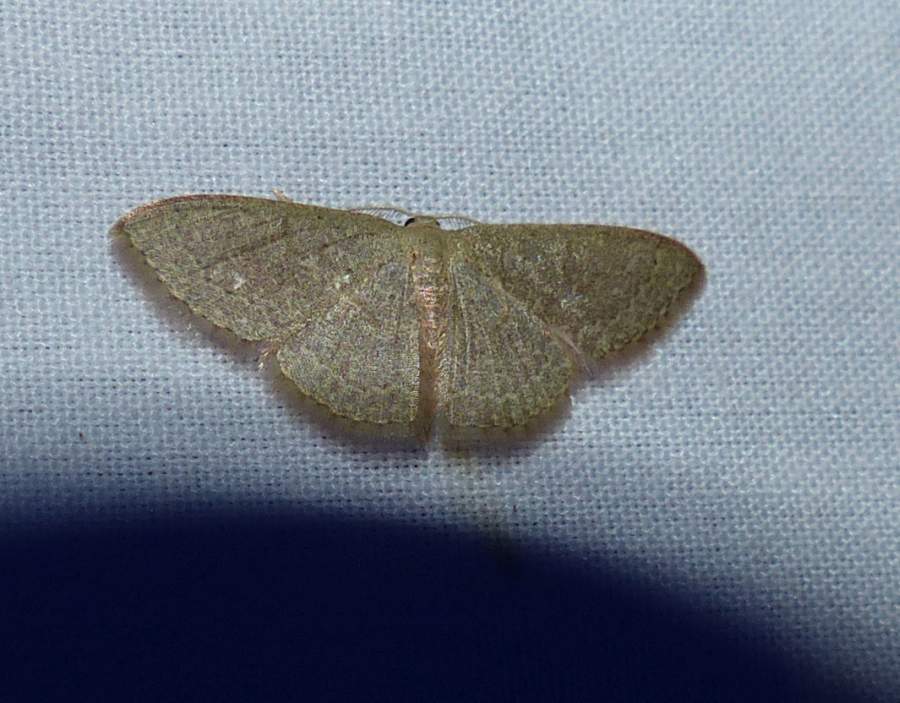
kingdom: Animalia
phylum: Arthropoda
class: Insecta
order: Lepidoptera
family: Geometridae
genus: Pleuroprucha
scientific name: Pleuroprucha insulsaria
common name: Common tan wave
